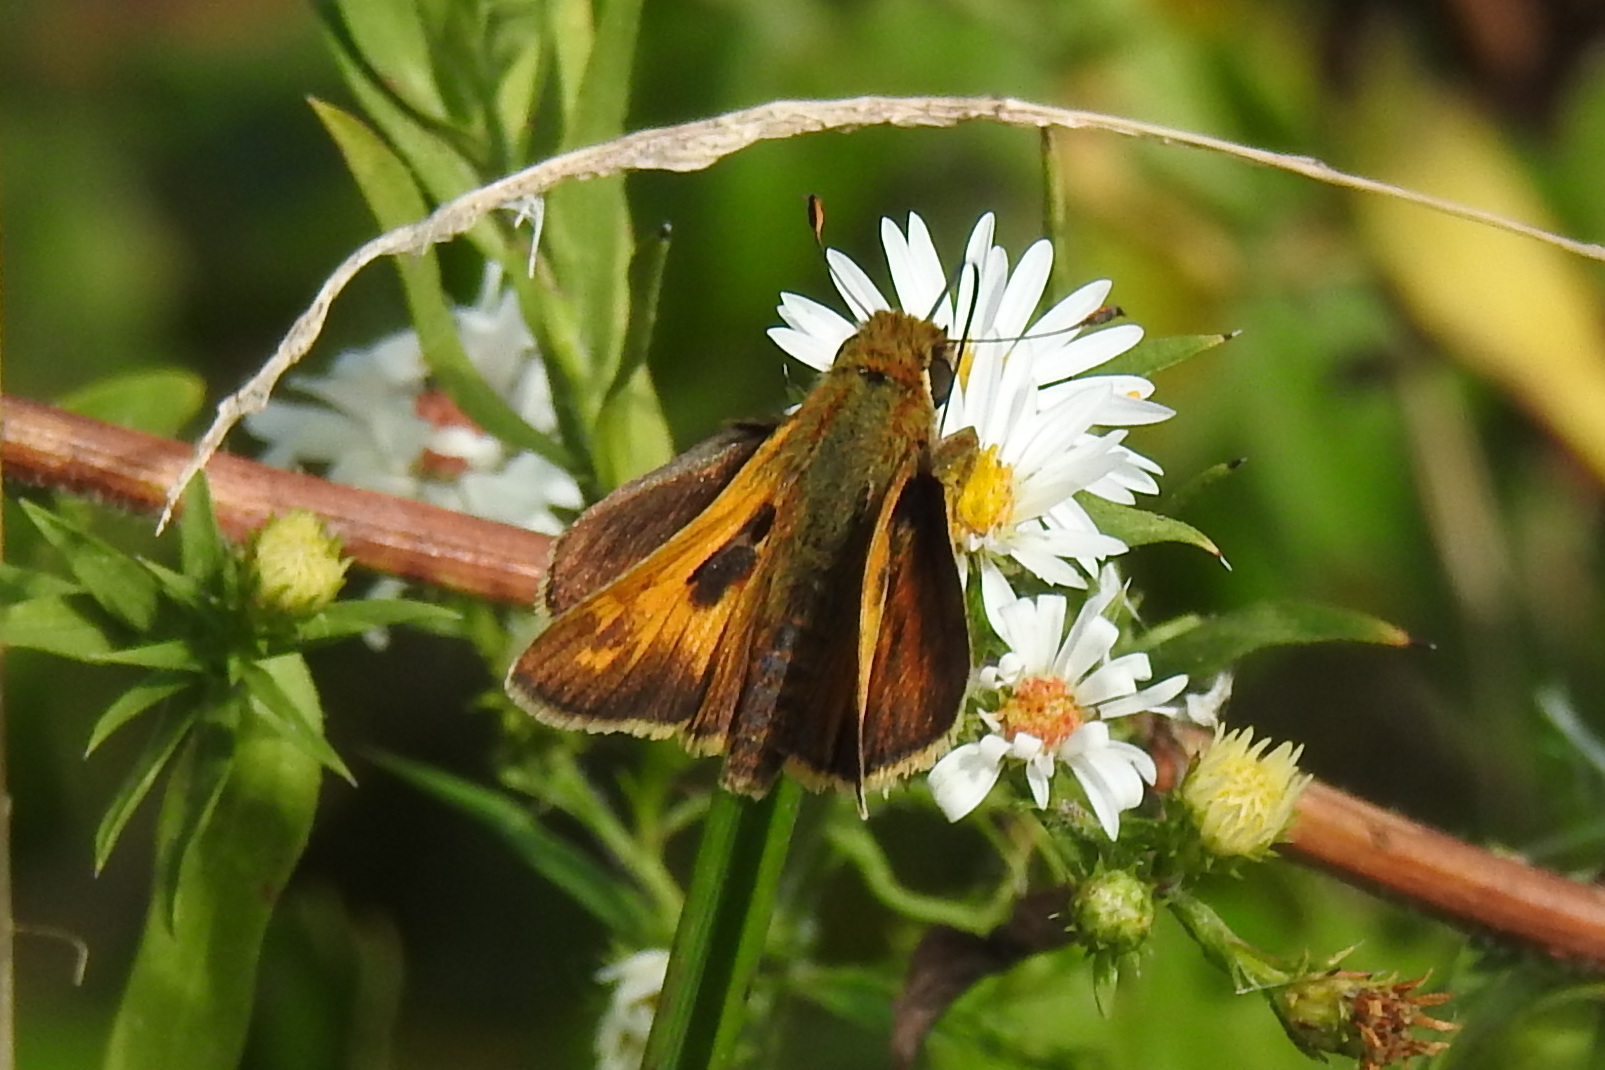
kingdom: Animalia
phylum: Arthropoda
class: Insecta
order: Lepidoptera
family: Hesperiidae
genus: Atalopedes
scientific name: Atalopedes
